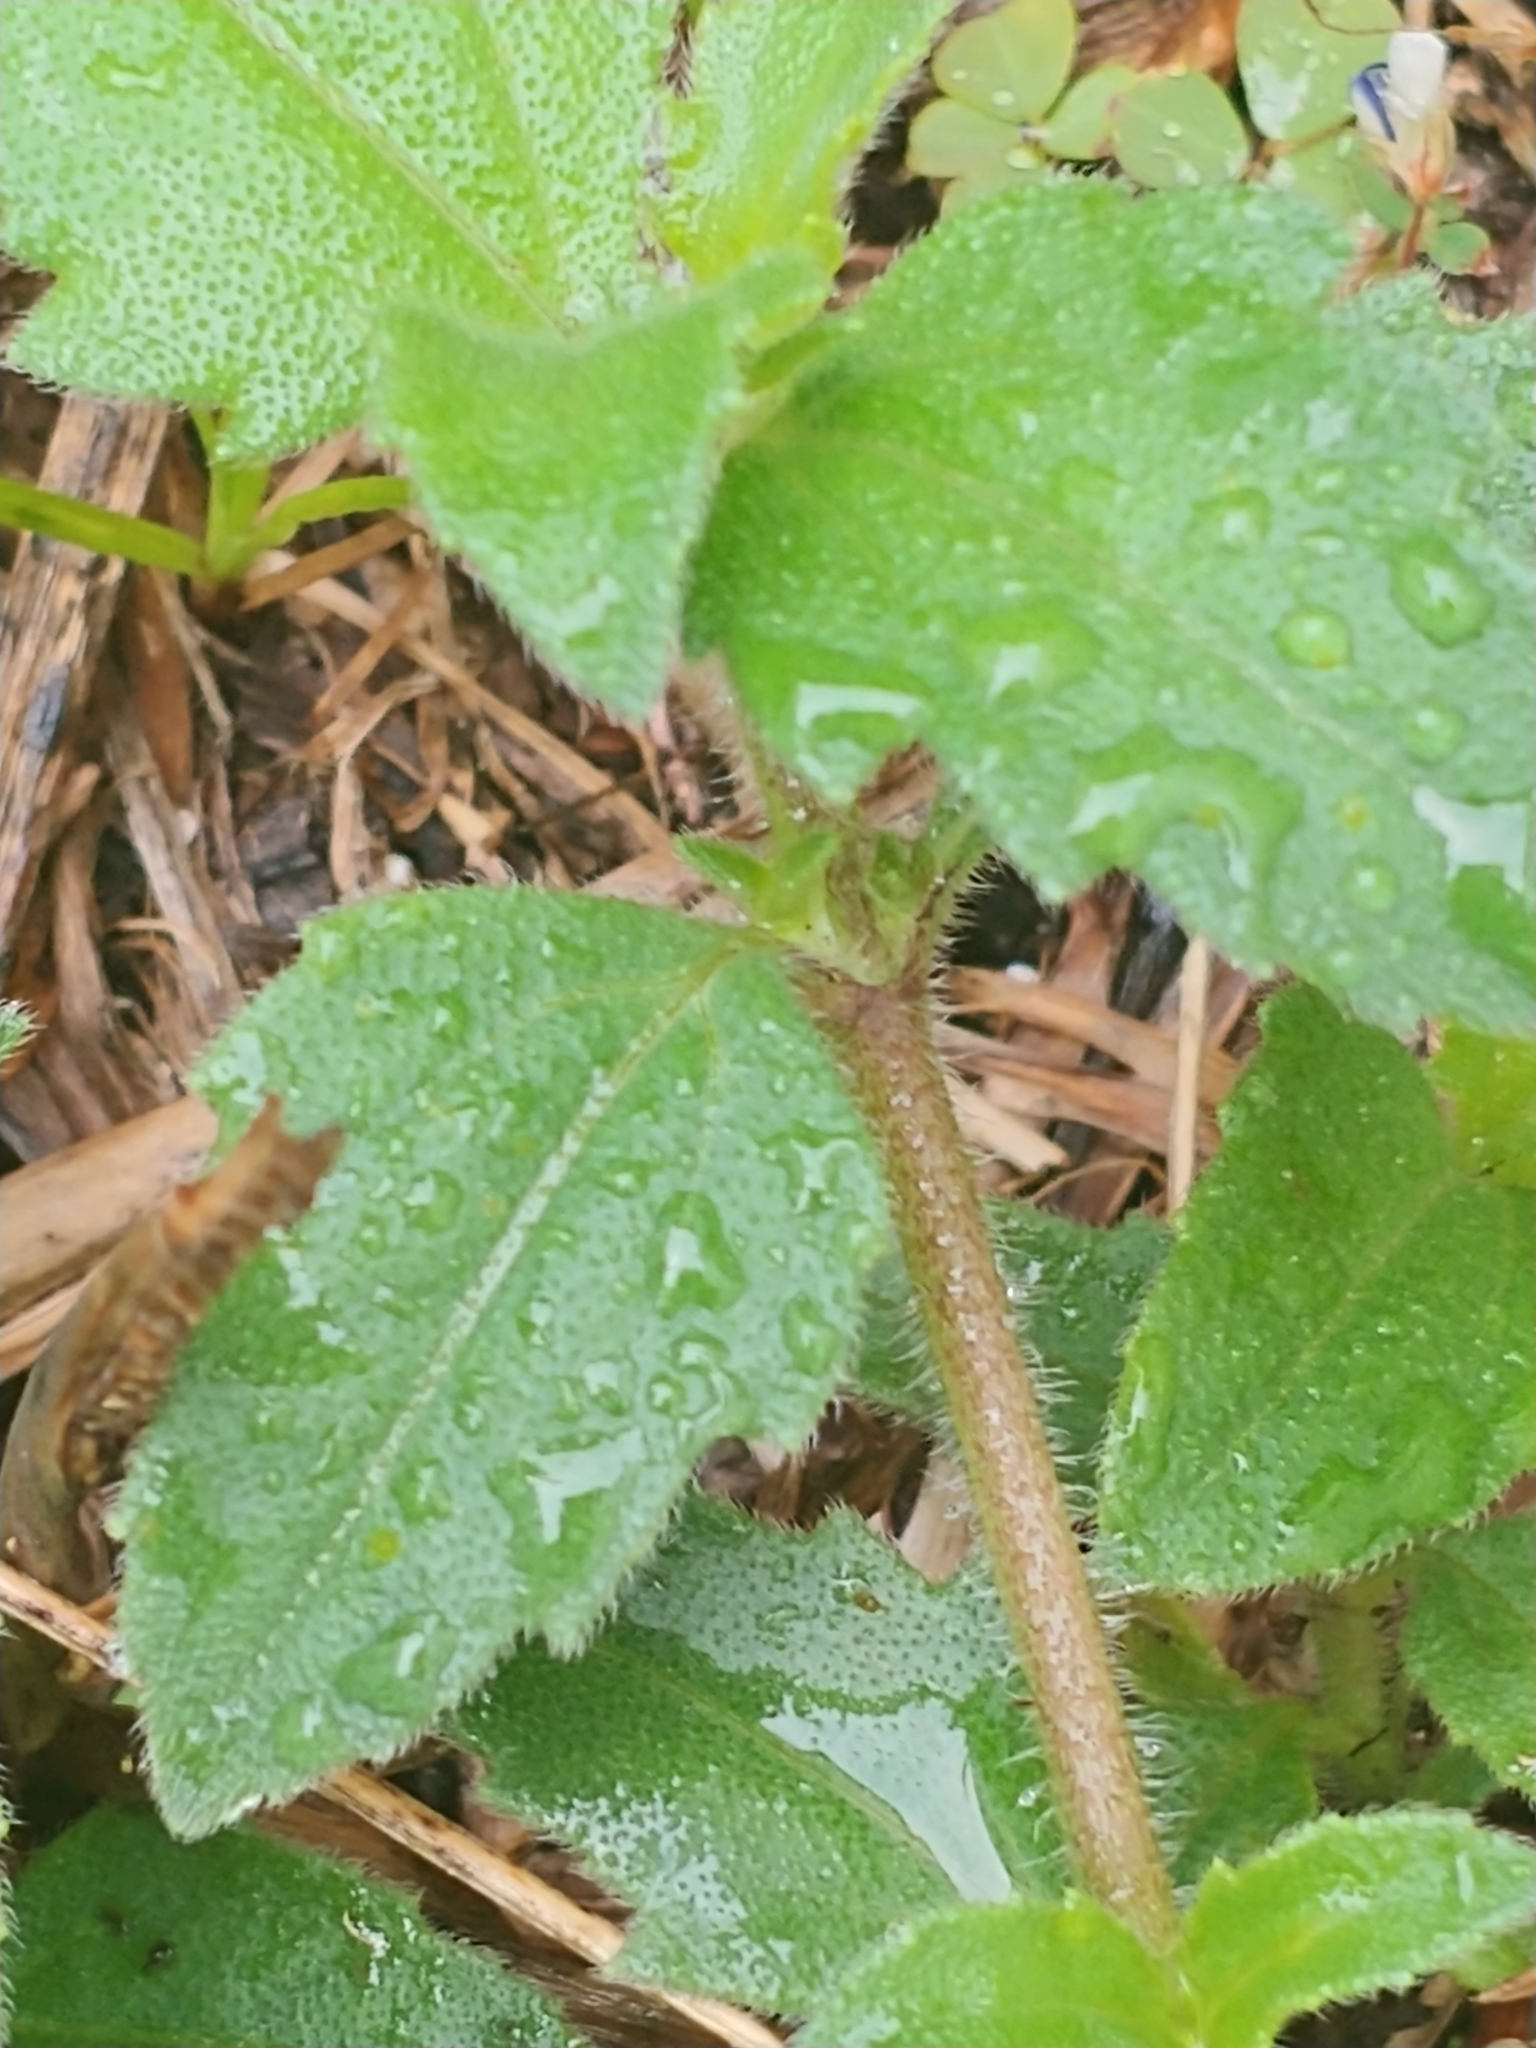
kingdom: Plantae
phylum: Tracheophyta
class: Magnoliopsida
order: Asterales
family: Asteraceae
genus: Tridax
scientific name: Tridax procumbens
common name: Coatbuttons
